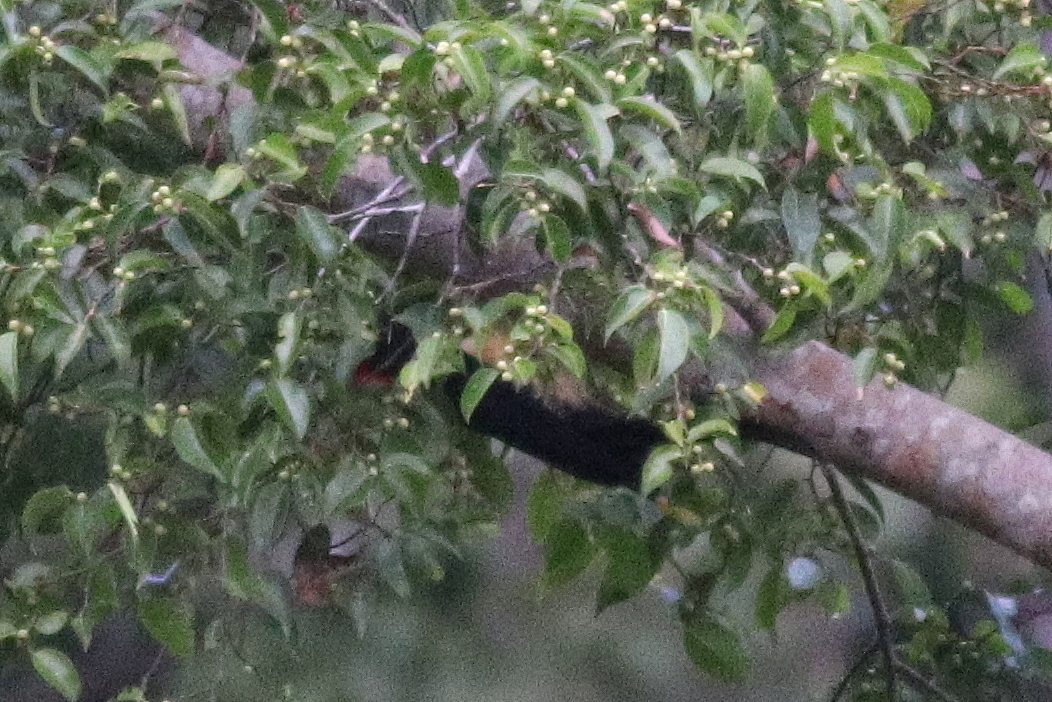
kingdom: Animalia
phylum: Chordata
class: Aves
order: Piciformes
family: Picidae
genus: Dryocopus
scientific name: Dryocopus javensis
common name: White-bellied woodpecker
